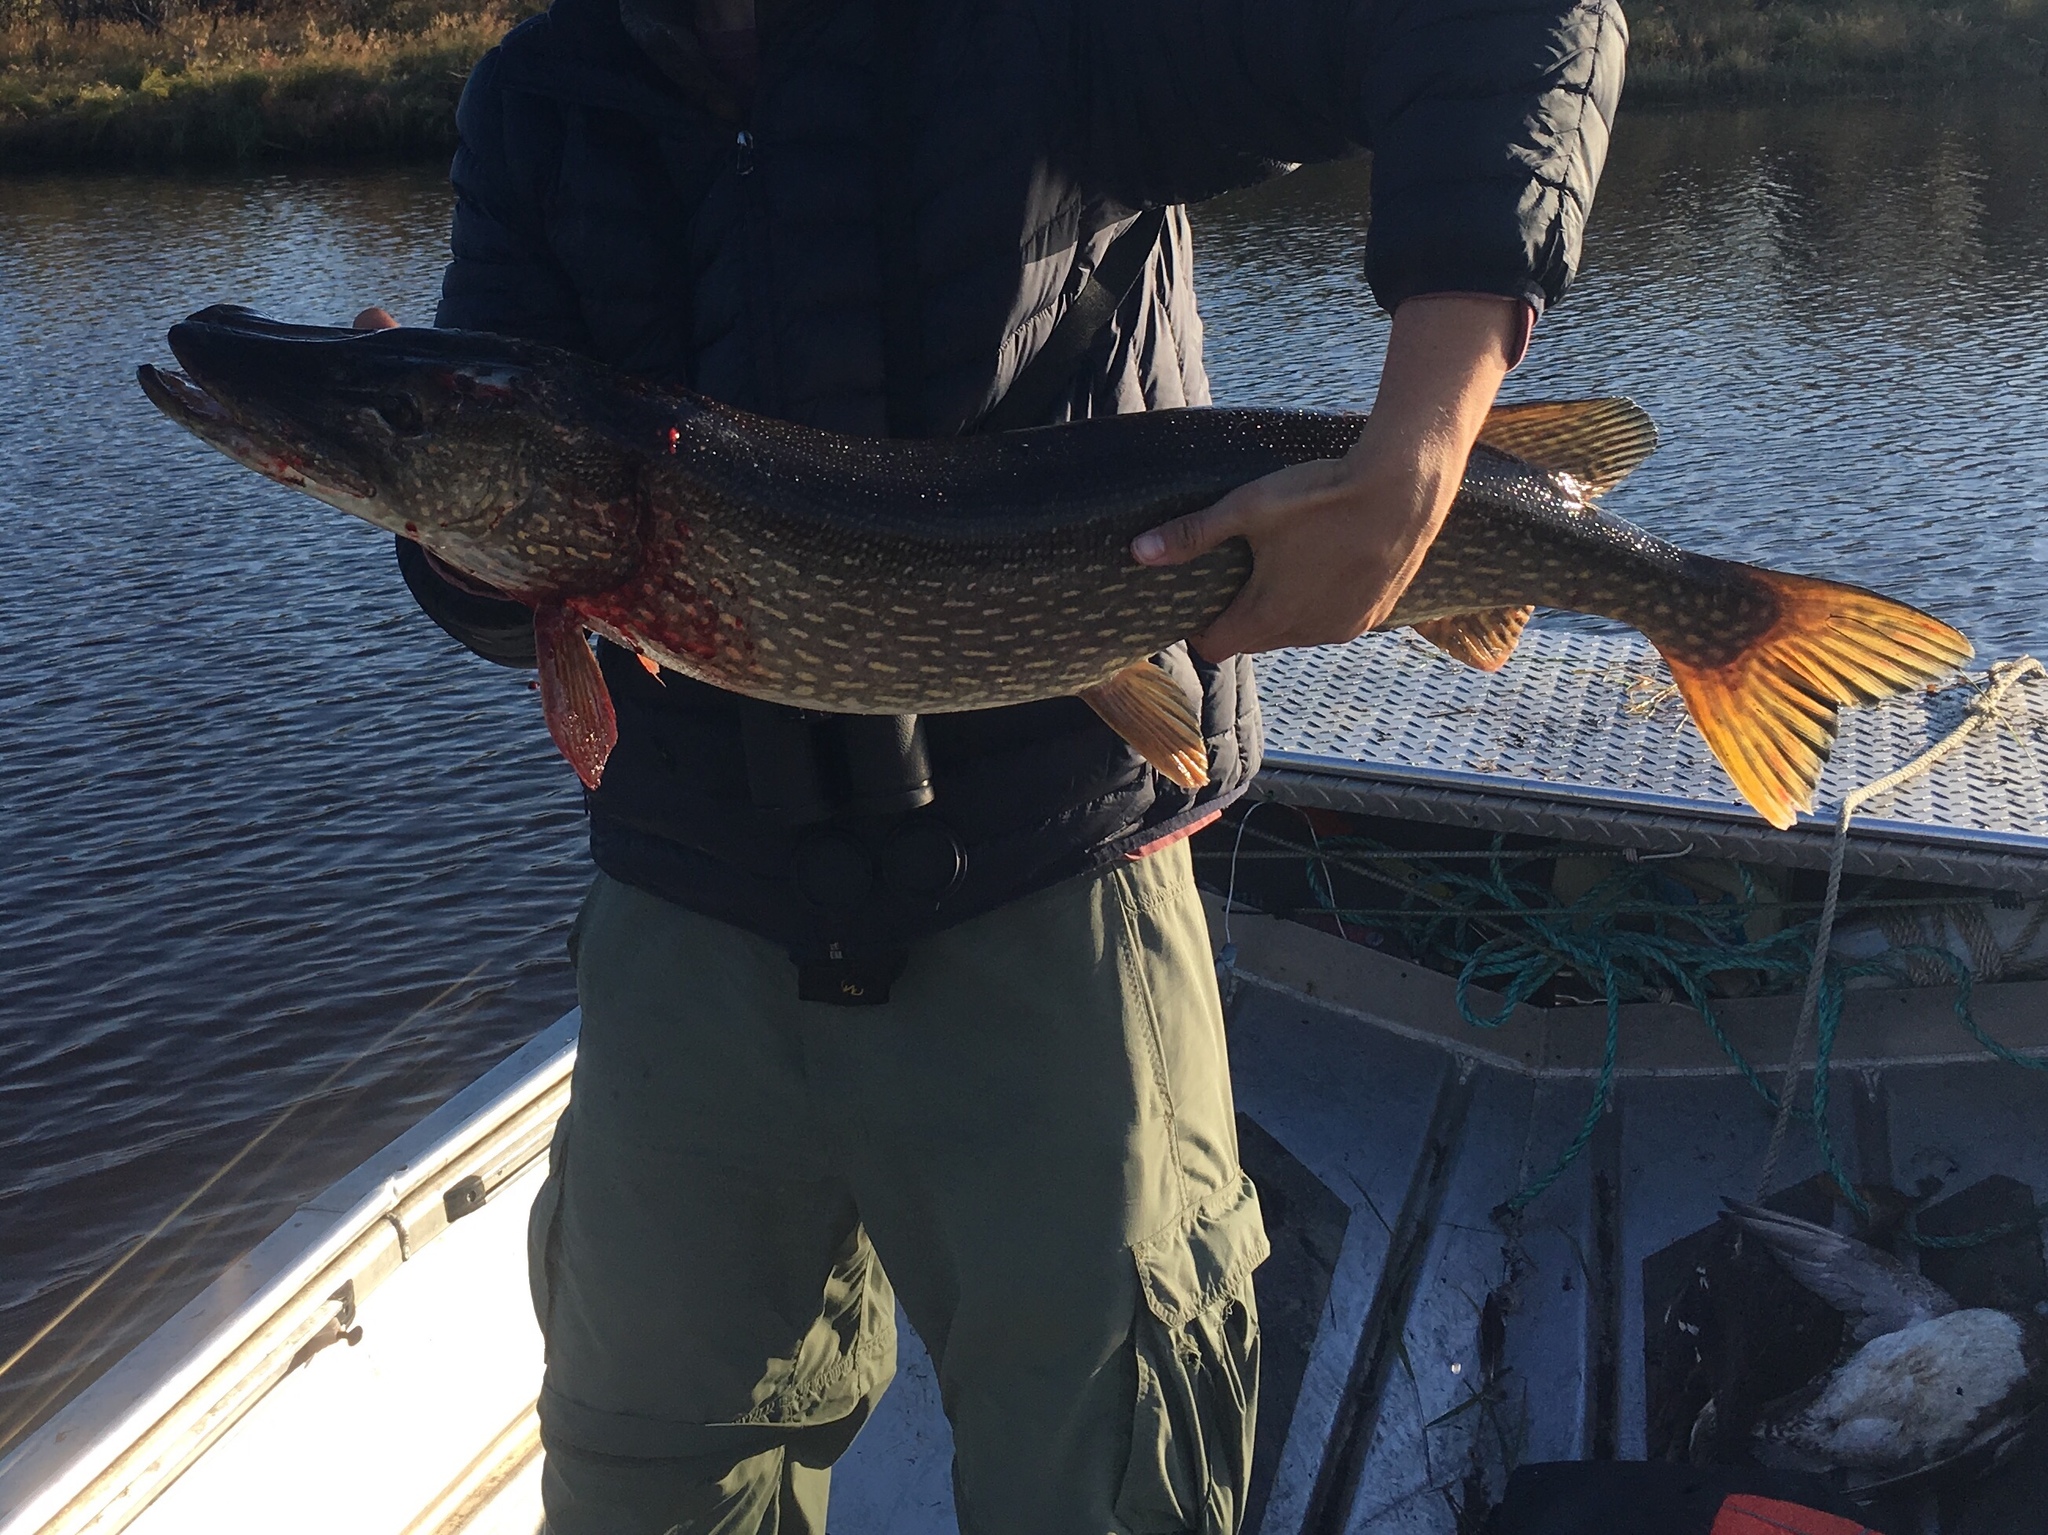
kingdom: Animalia
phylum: Chordata
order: Esociformes
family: Esocidae
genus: Esox
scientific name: Esox lucius
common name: Northern pike
